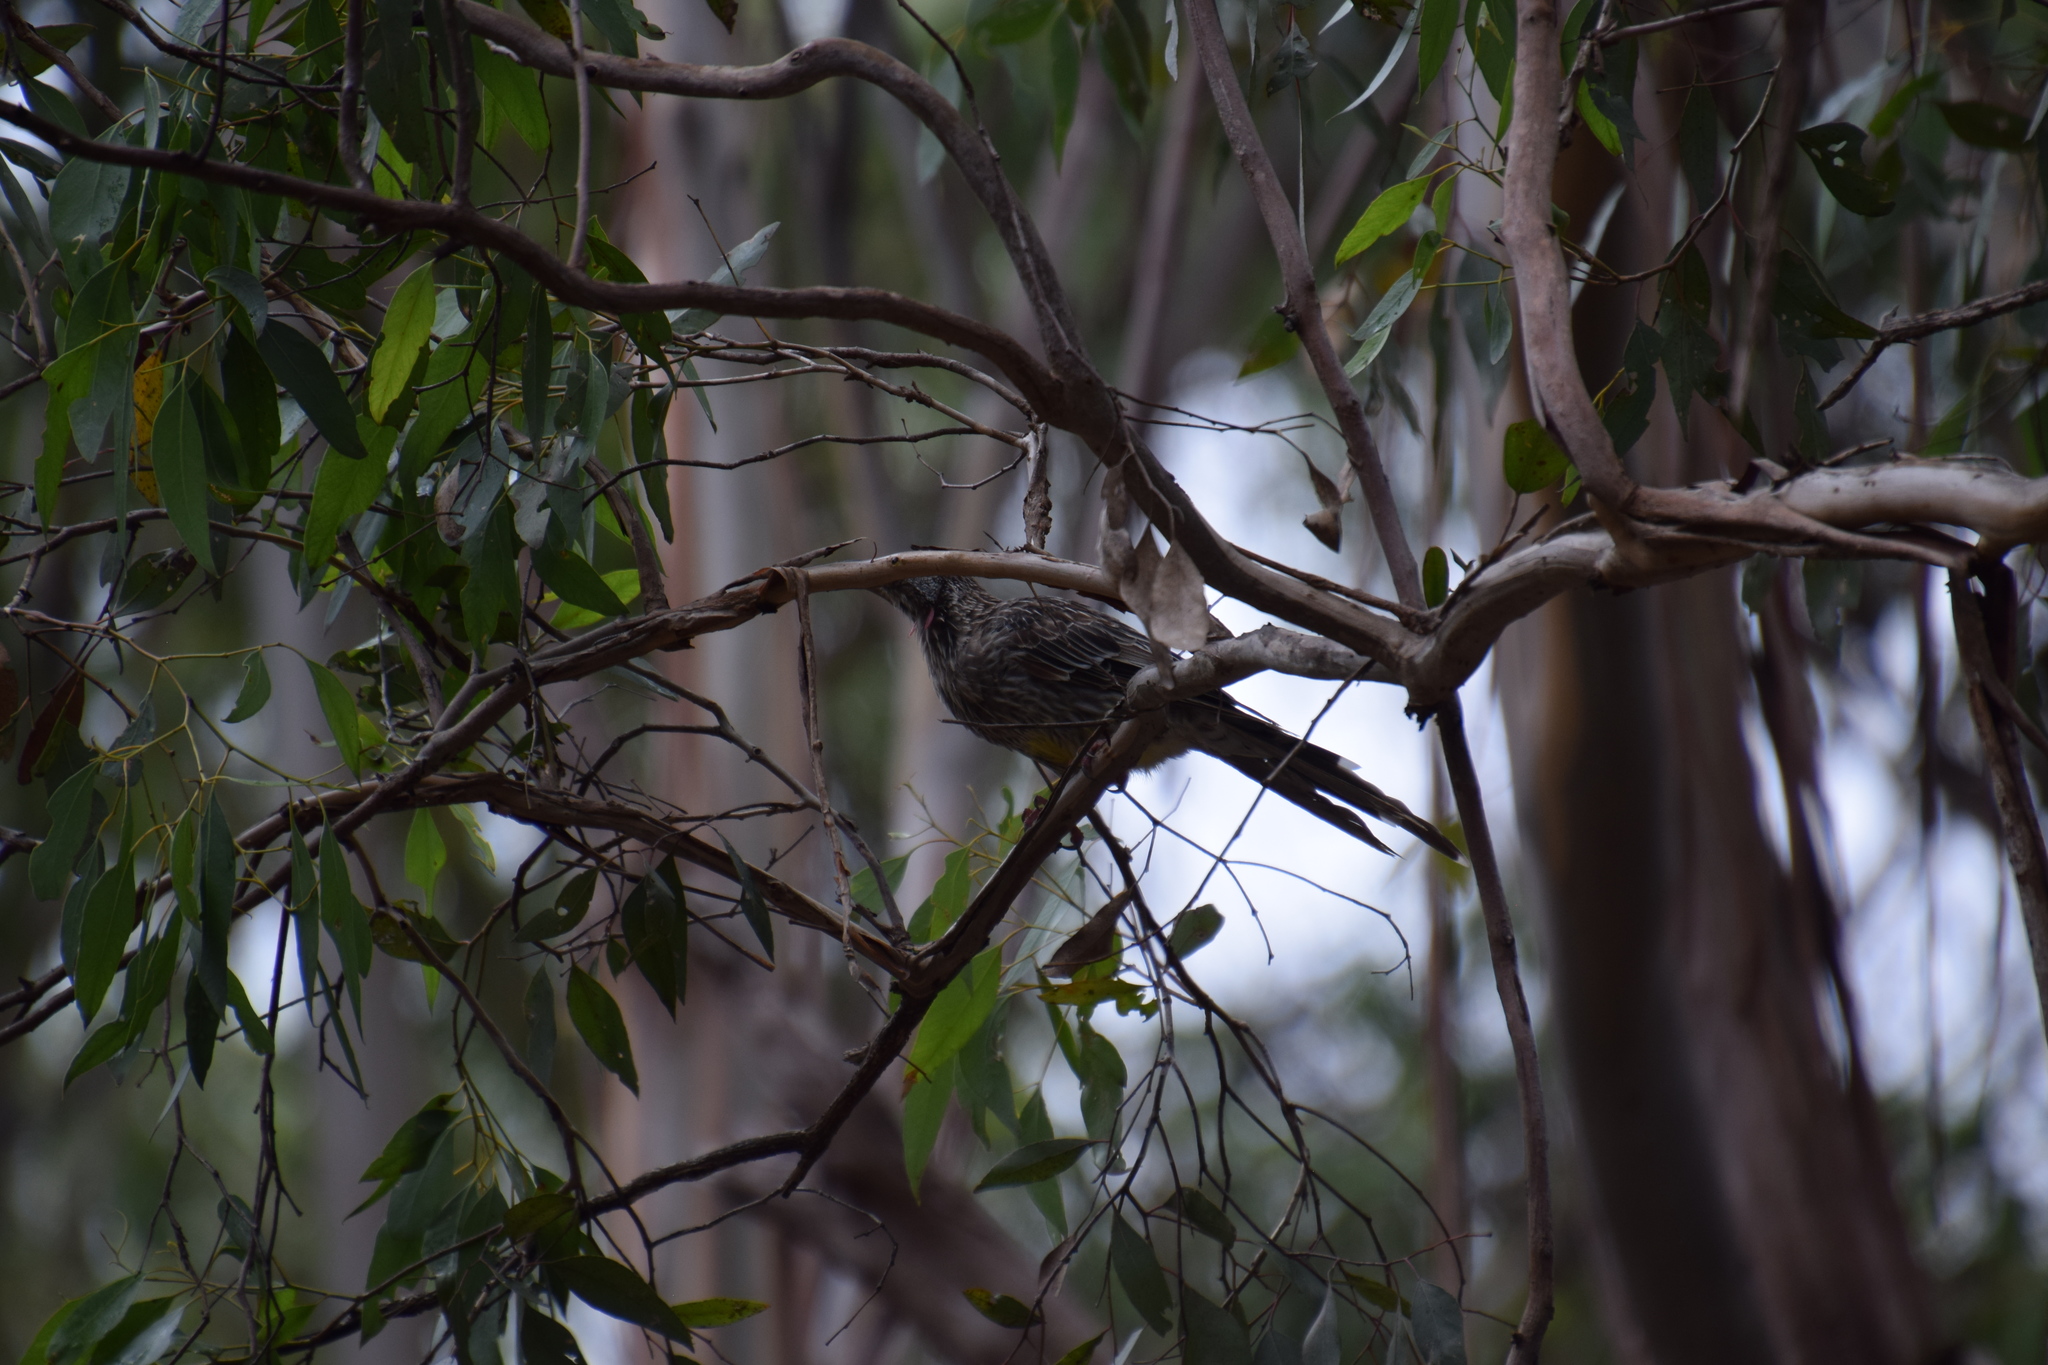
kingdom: Animalia
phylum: Chordata
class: Aves
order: Passeriformes
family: Meliphagidae
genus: Anthochaera
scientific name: Anthochaera carunculata
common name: Red wattlebird
